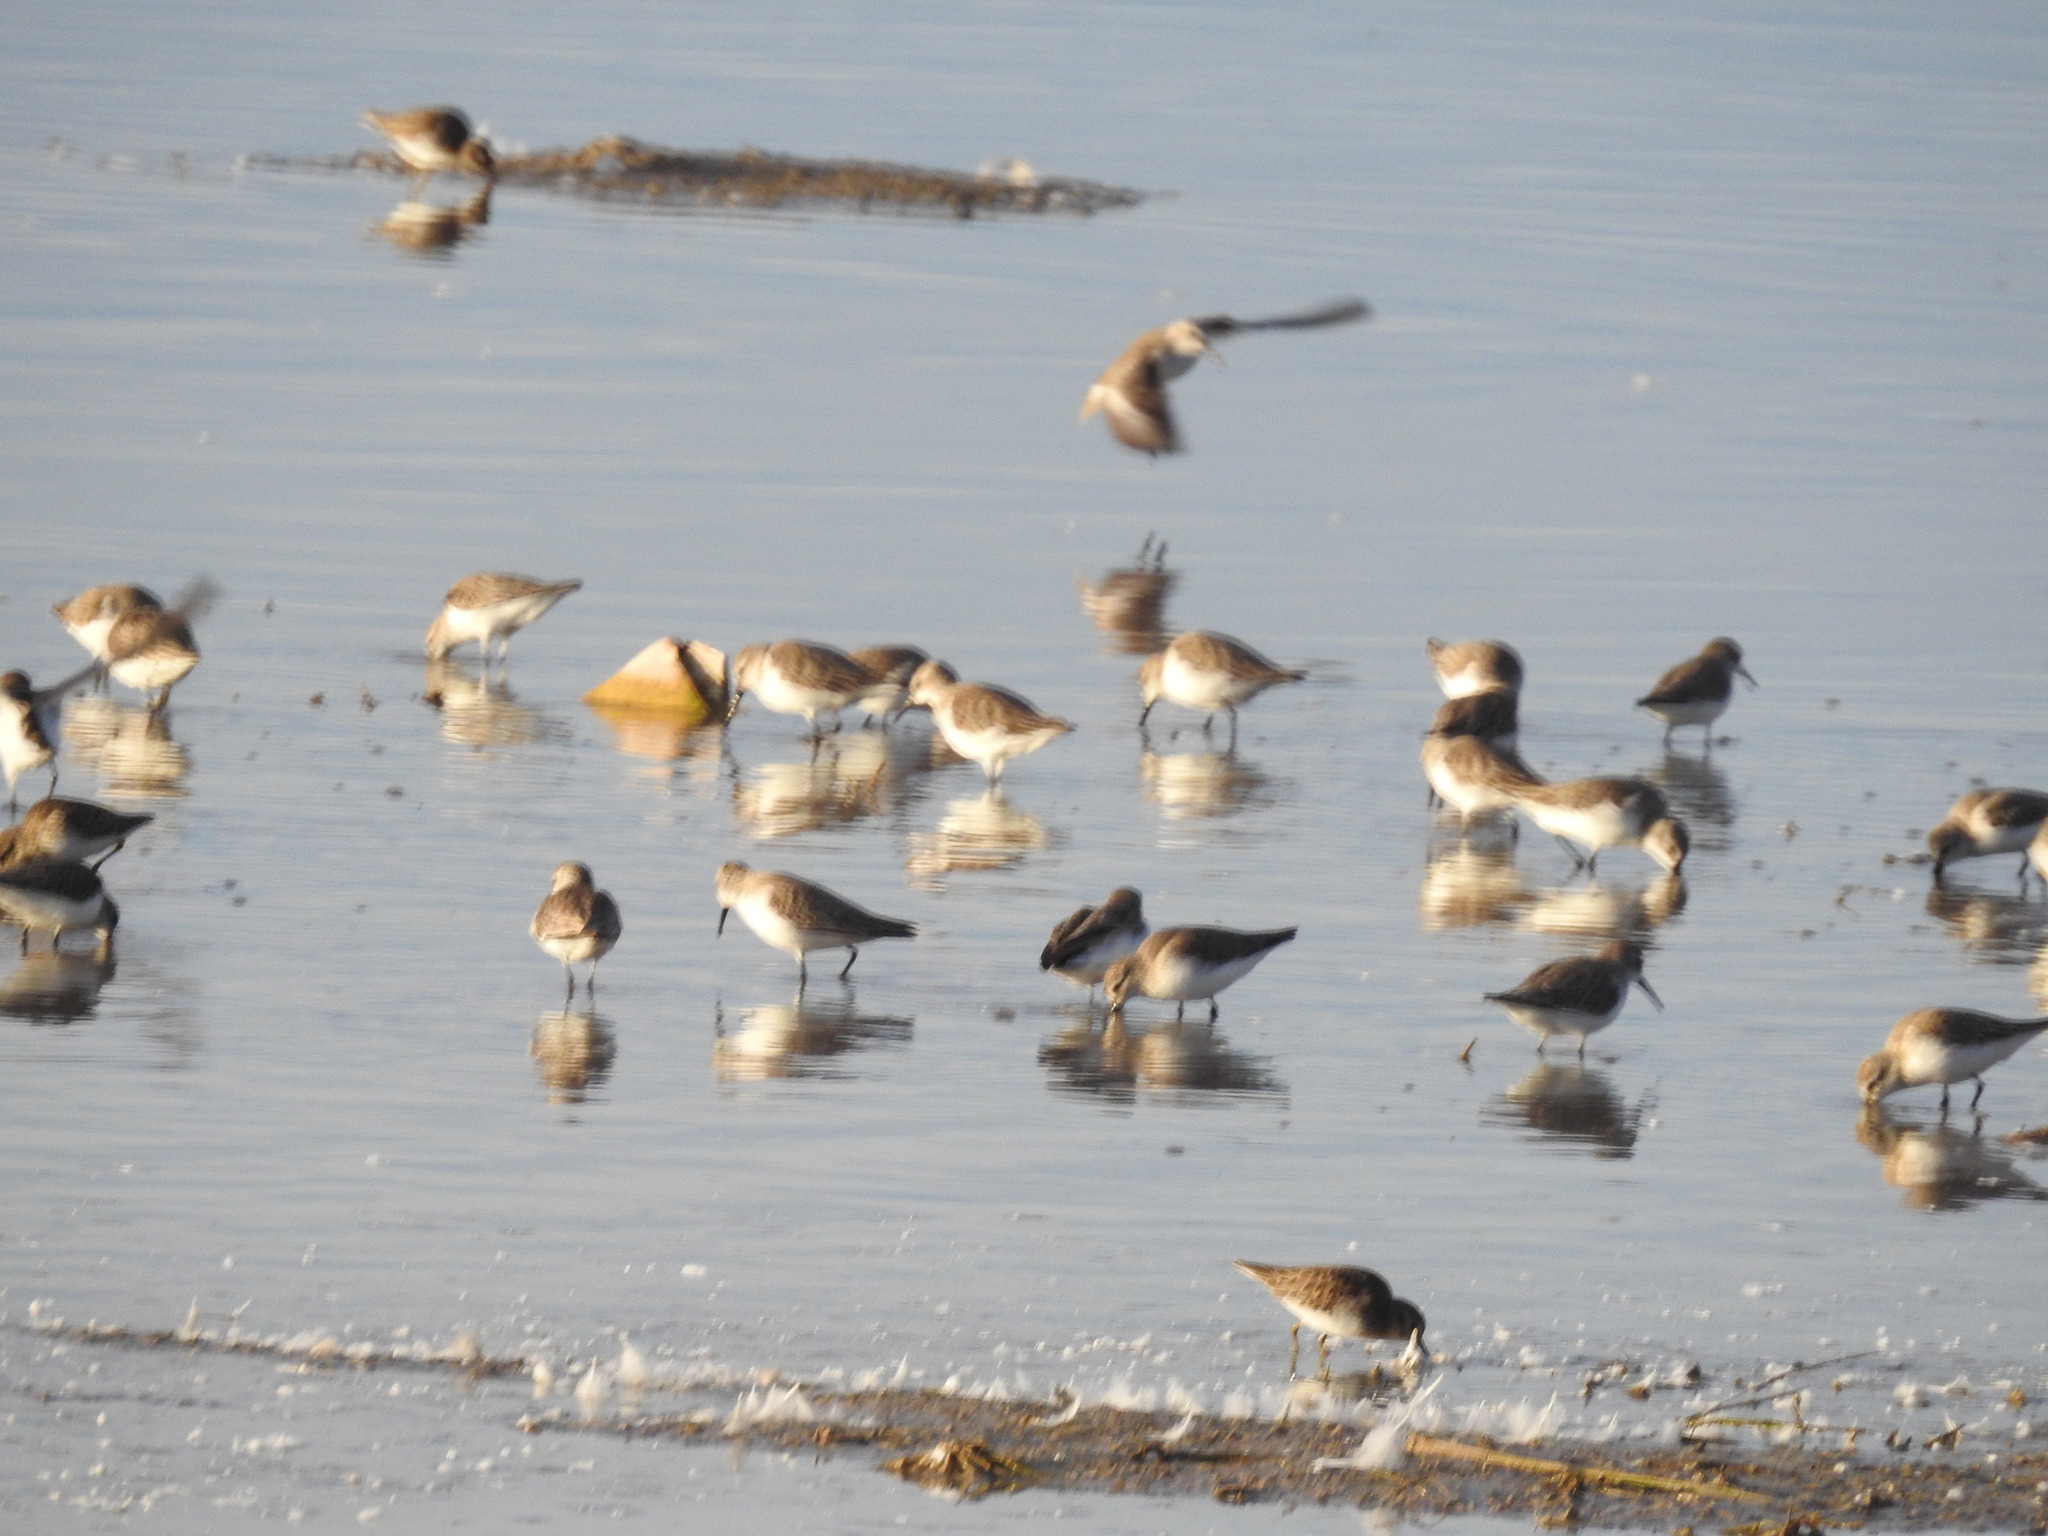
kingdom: Animalia
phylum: Chordata
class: Aves
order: Charadriiformes
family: Scolopacidae
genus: Calidris
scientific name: Calidris minutilla
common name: Least sandpiper
